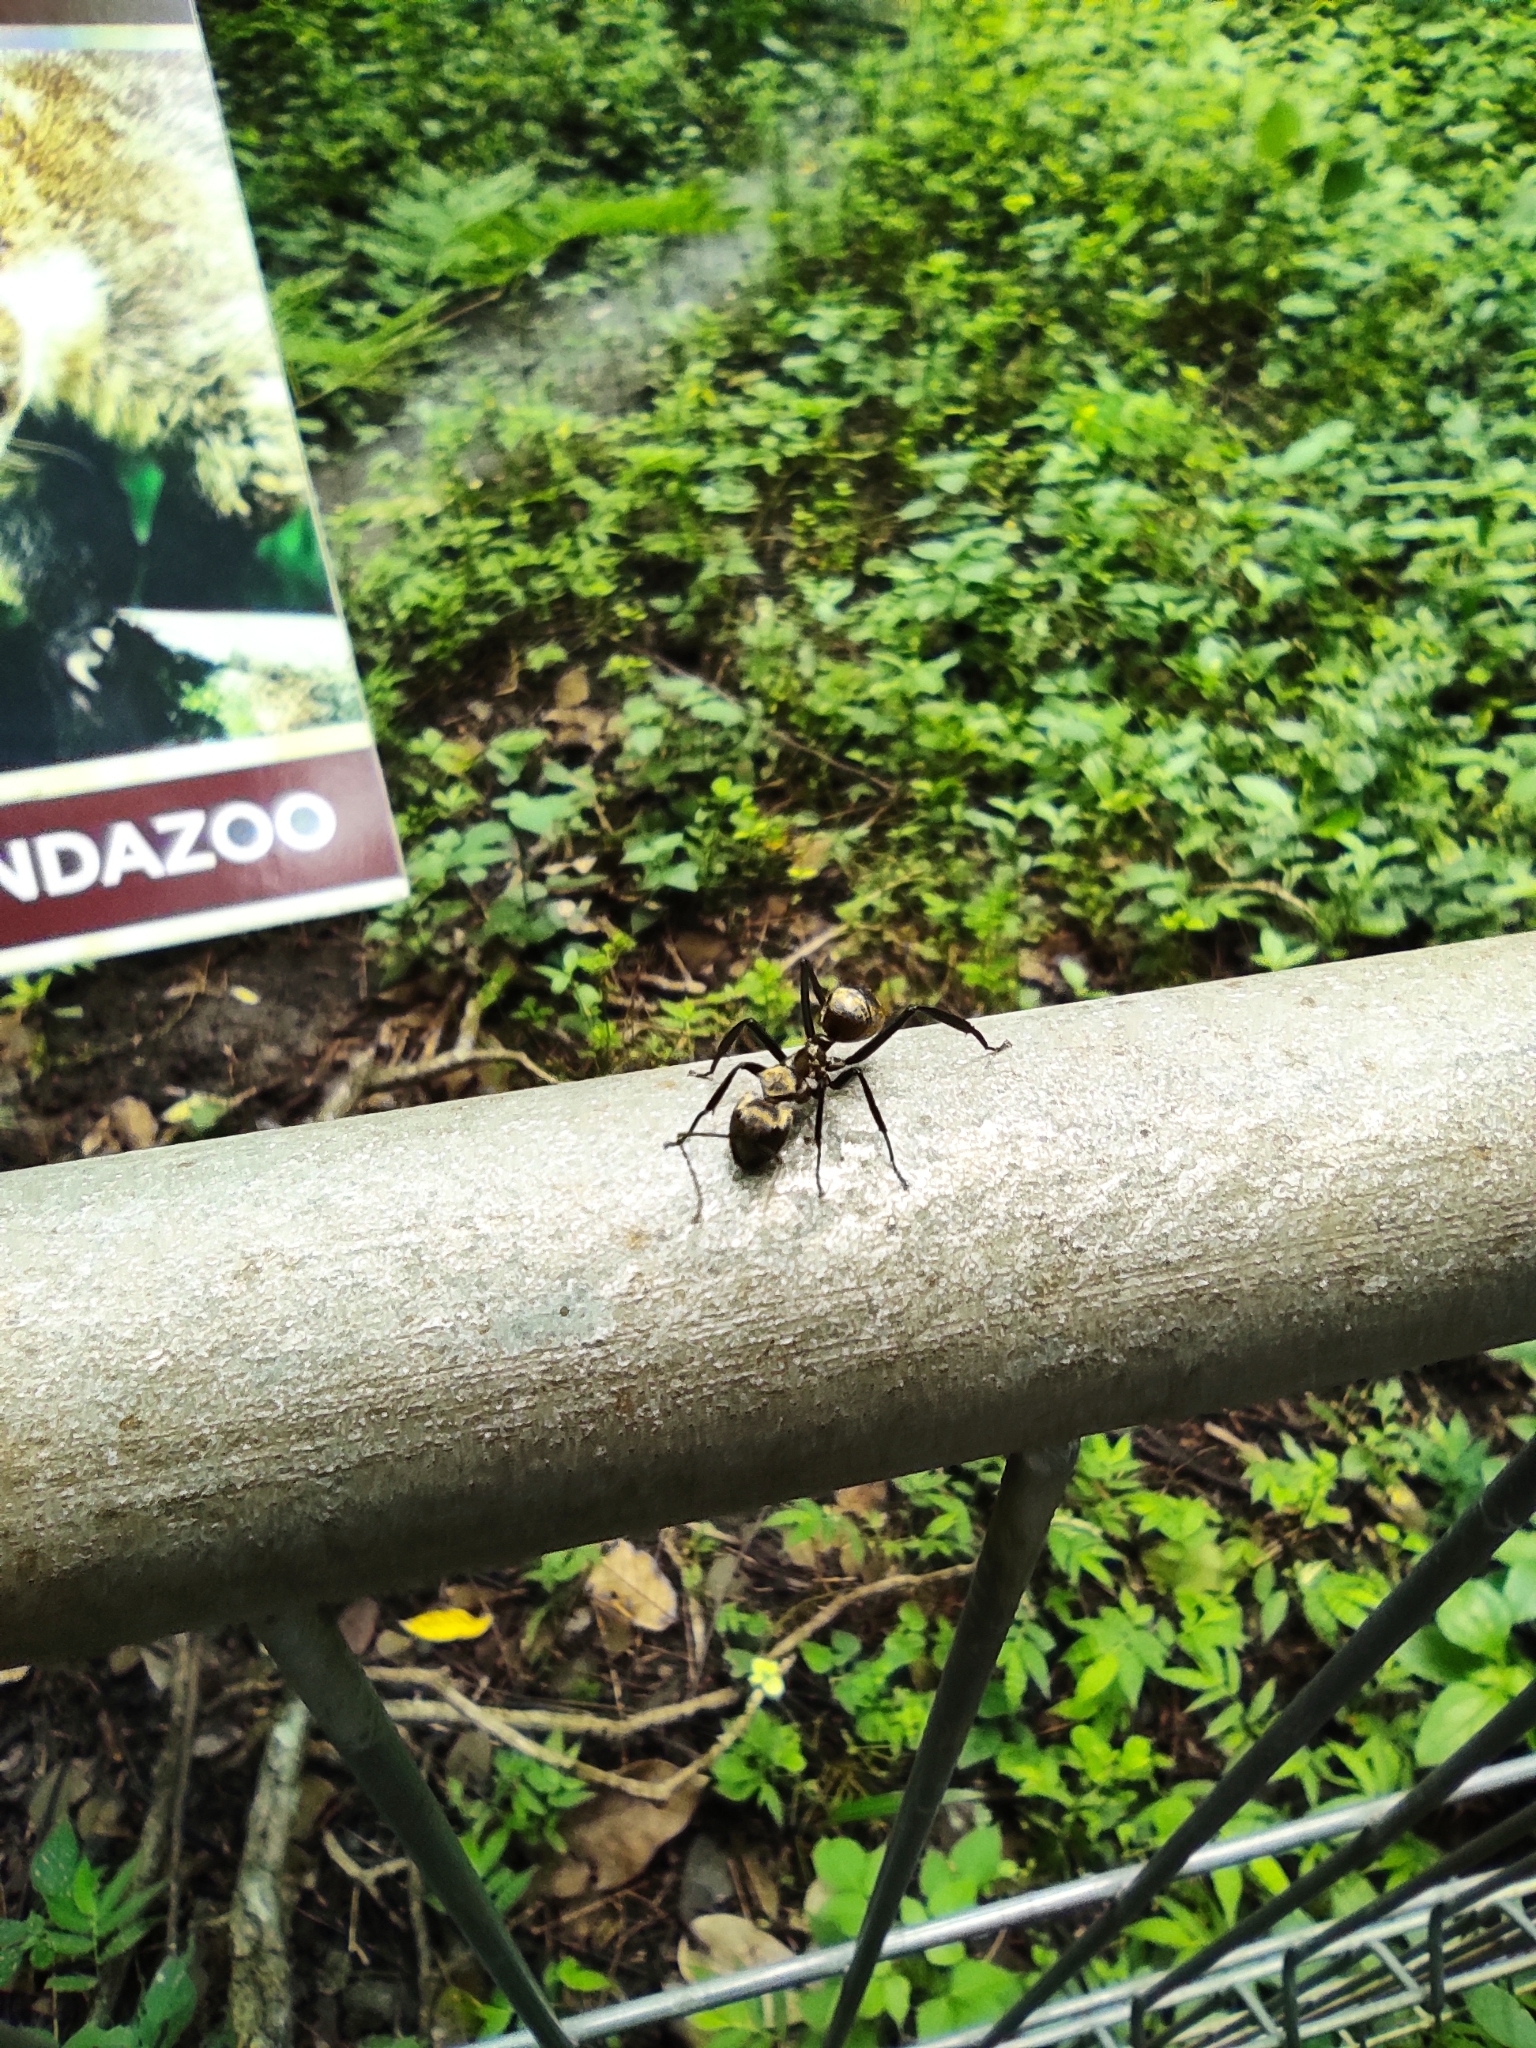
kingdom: Animalia
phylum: Arthropoda
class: Insecta
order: Hymenoptera
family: Formicidae
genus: Camponotus
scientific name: Camponotus sericeiventris
